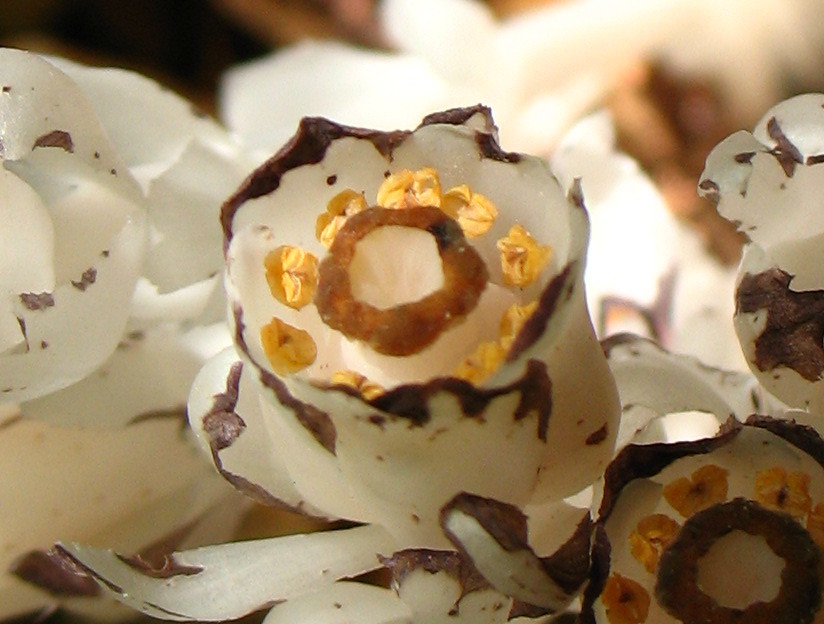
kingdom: Plantae
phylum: Tracheophyta
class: Magnoliopsida
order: Ericales
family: Ericaceae
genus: Monotropa
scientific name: Monotropa uniflora
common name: Convulsion root
